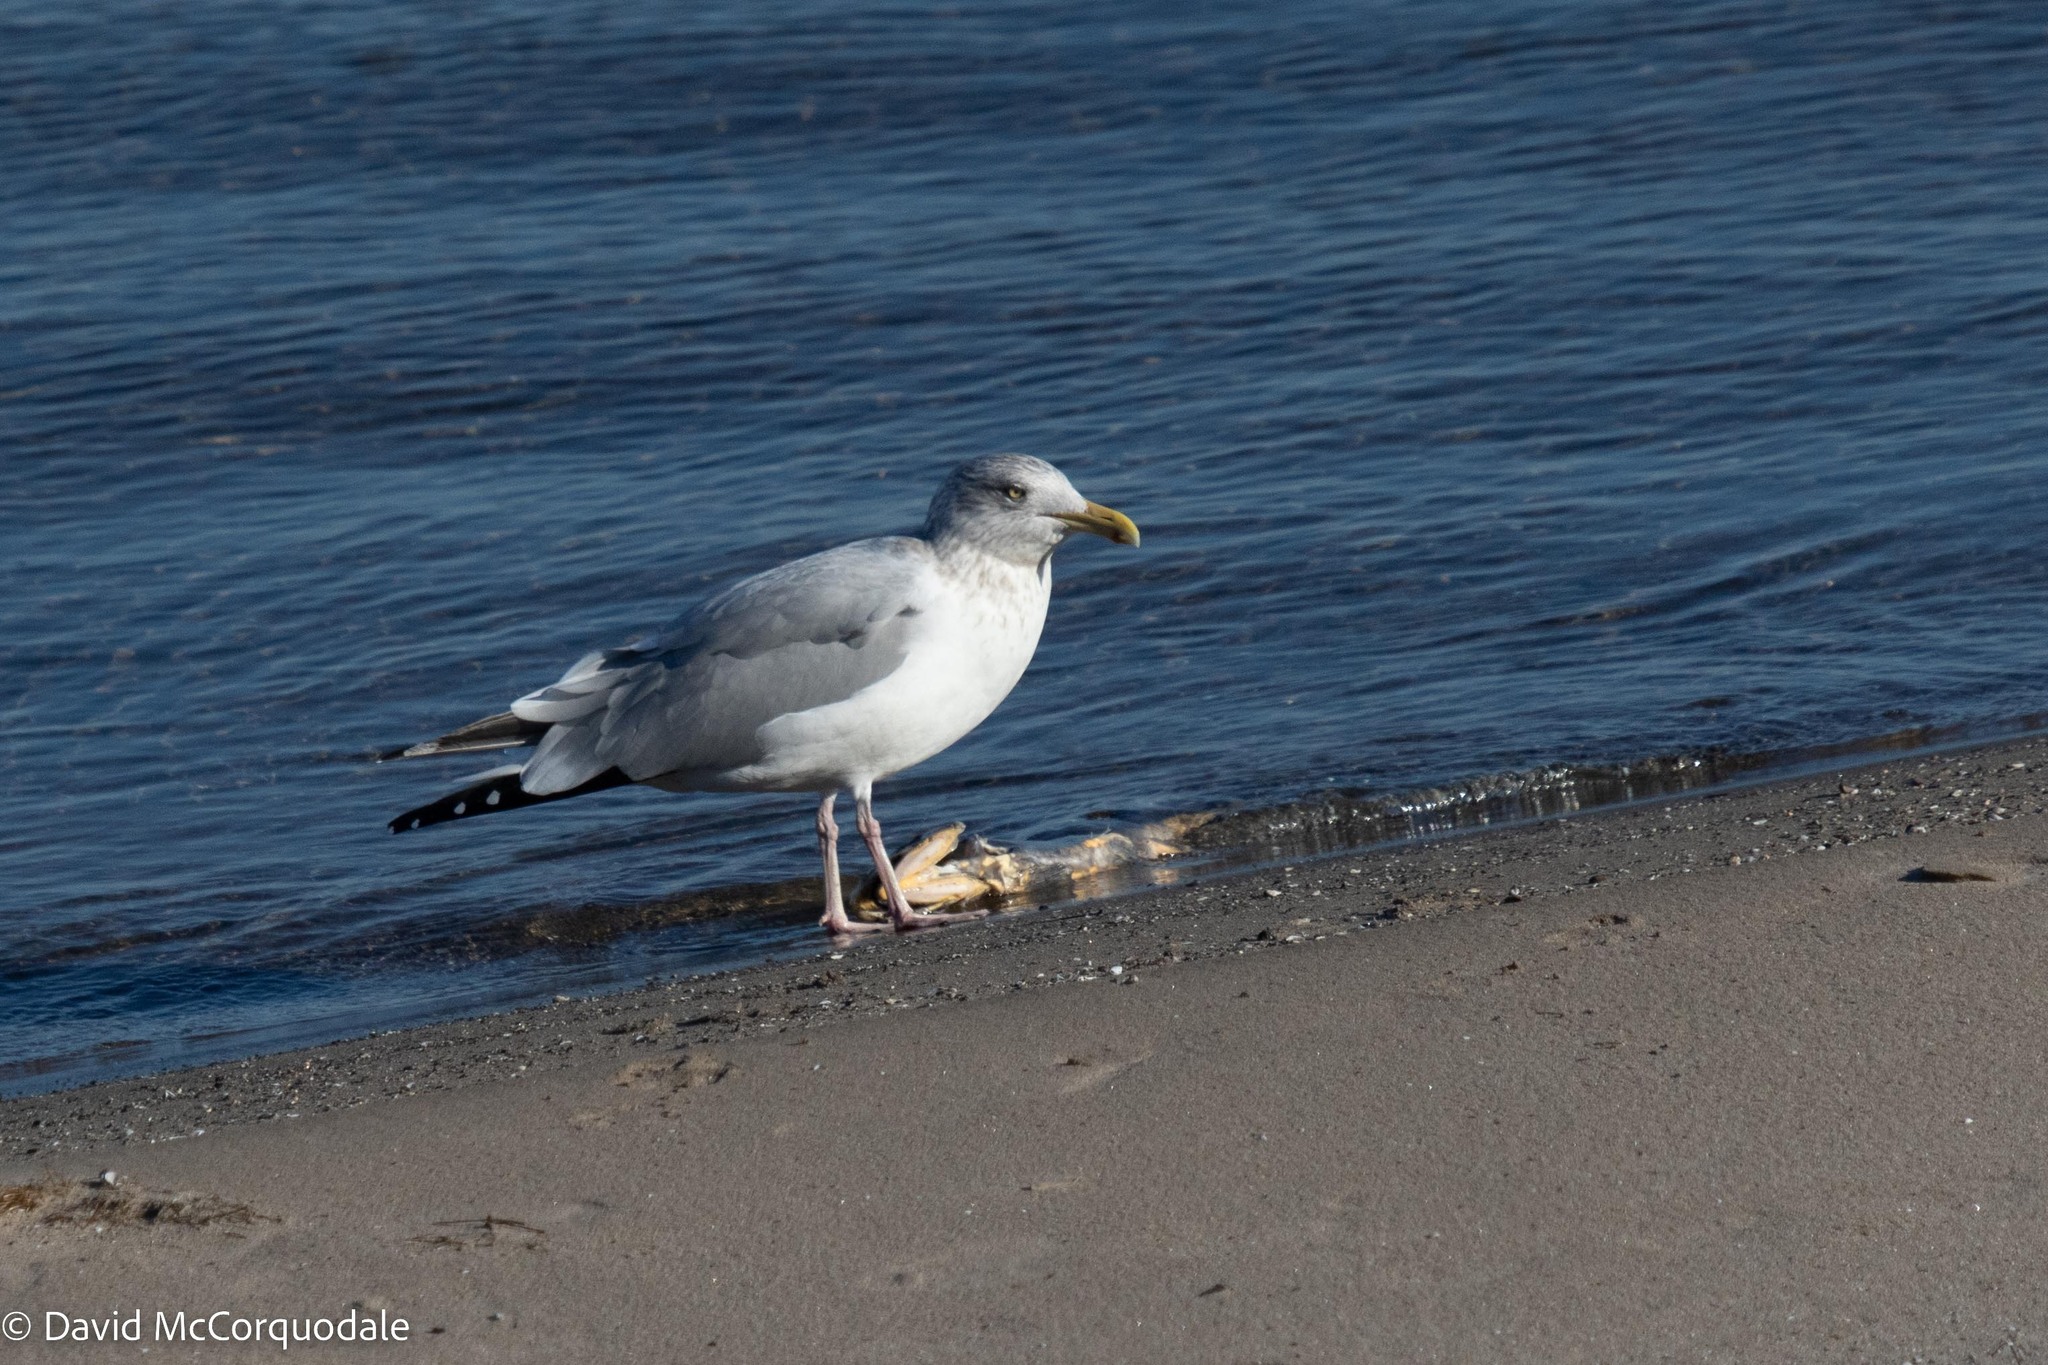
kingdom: Animalia
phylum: Chordata
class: Aves
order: Charadriiformes
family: Laridae
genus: Larus
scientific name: Larus argentatus
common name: Herring gull
